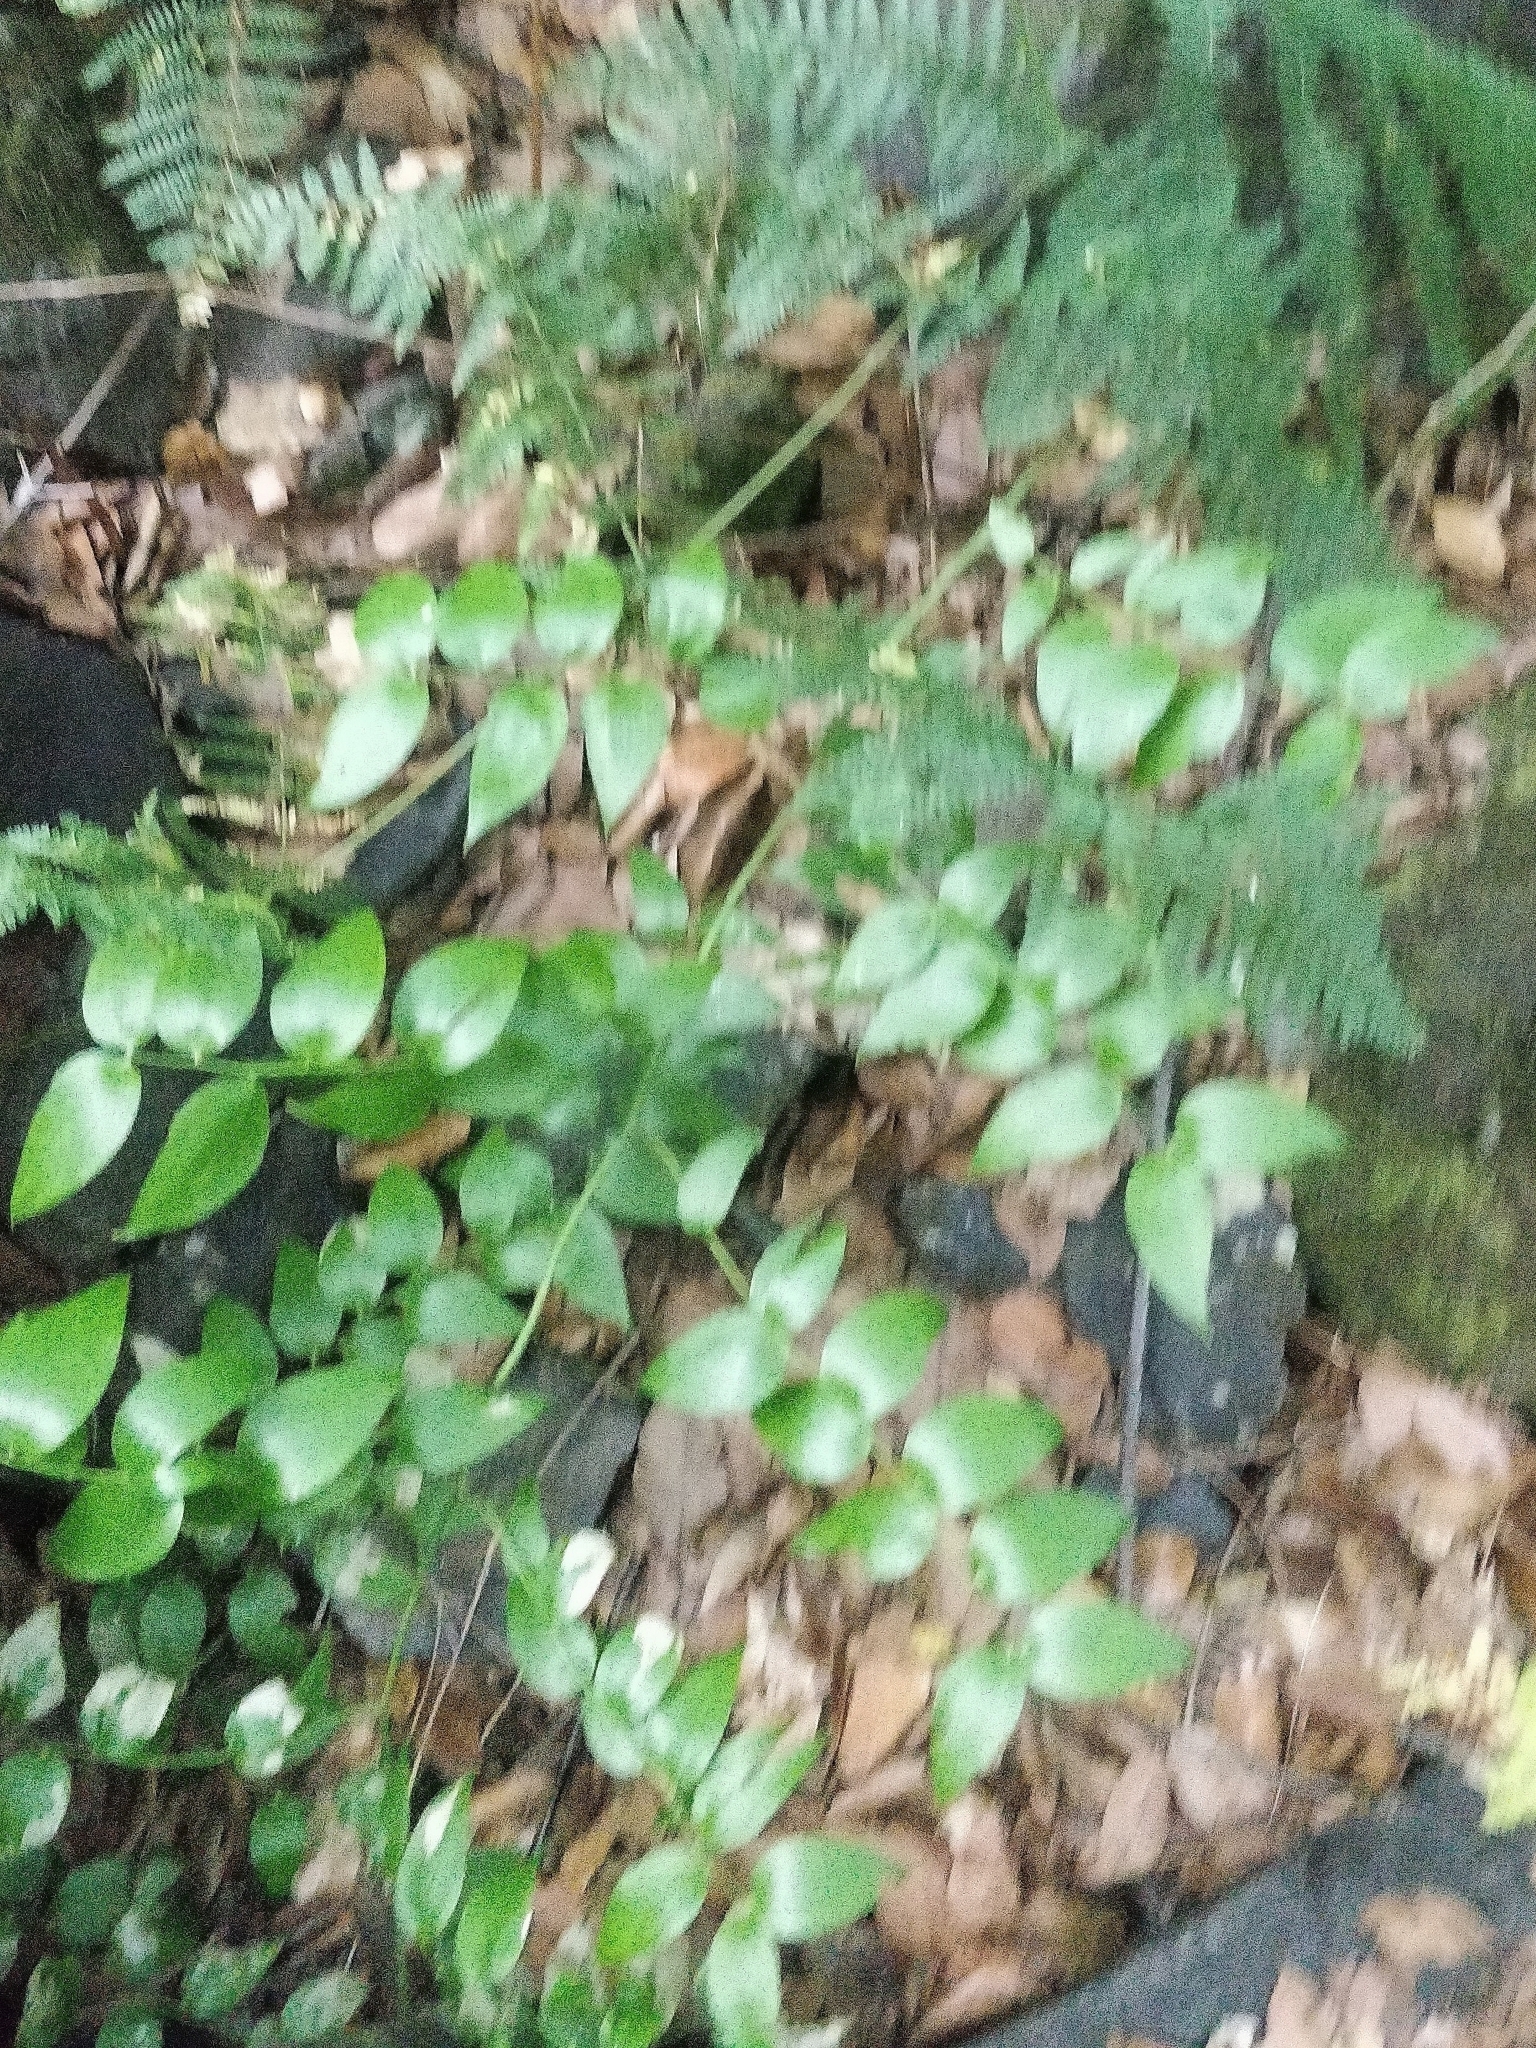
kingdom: Plantae
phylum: Tracheophyta
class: Liliopsida
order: Asparagales
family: Asparagaceae
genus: Semele
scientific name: Semele androgyna
